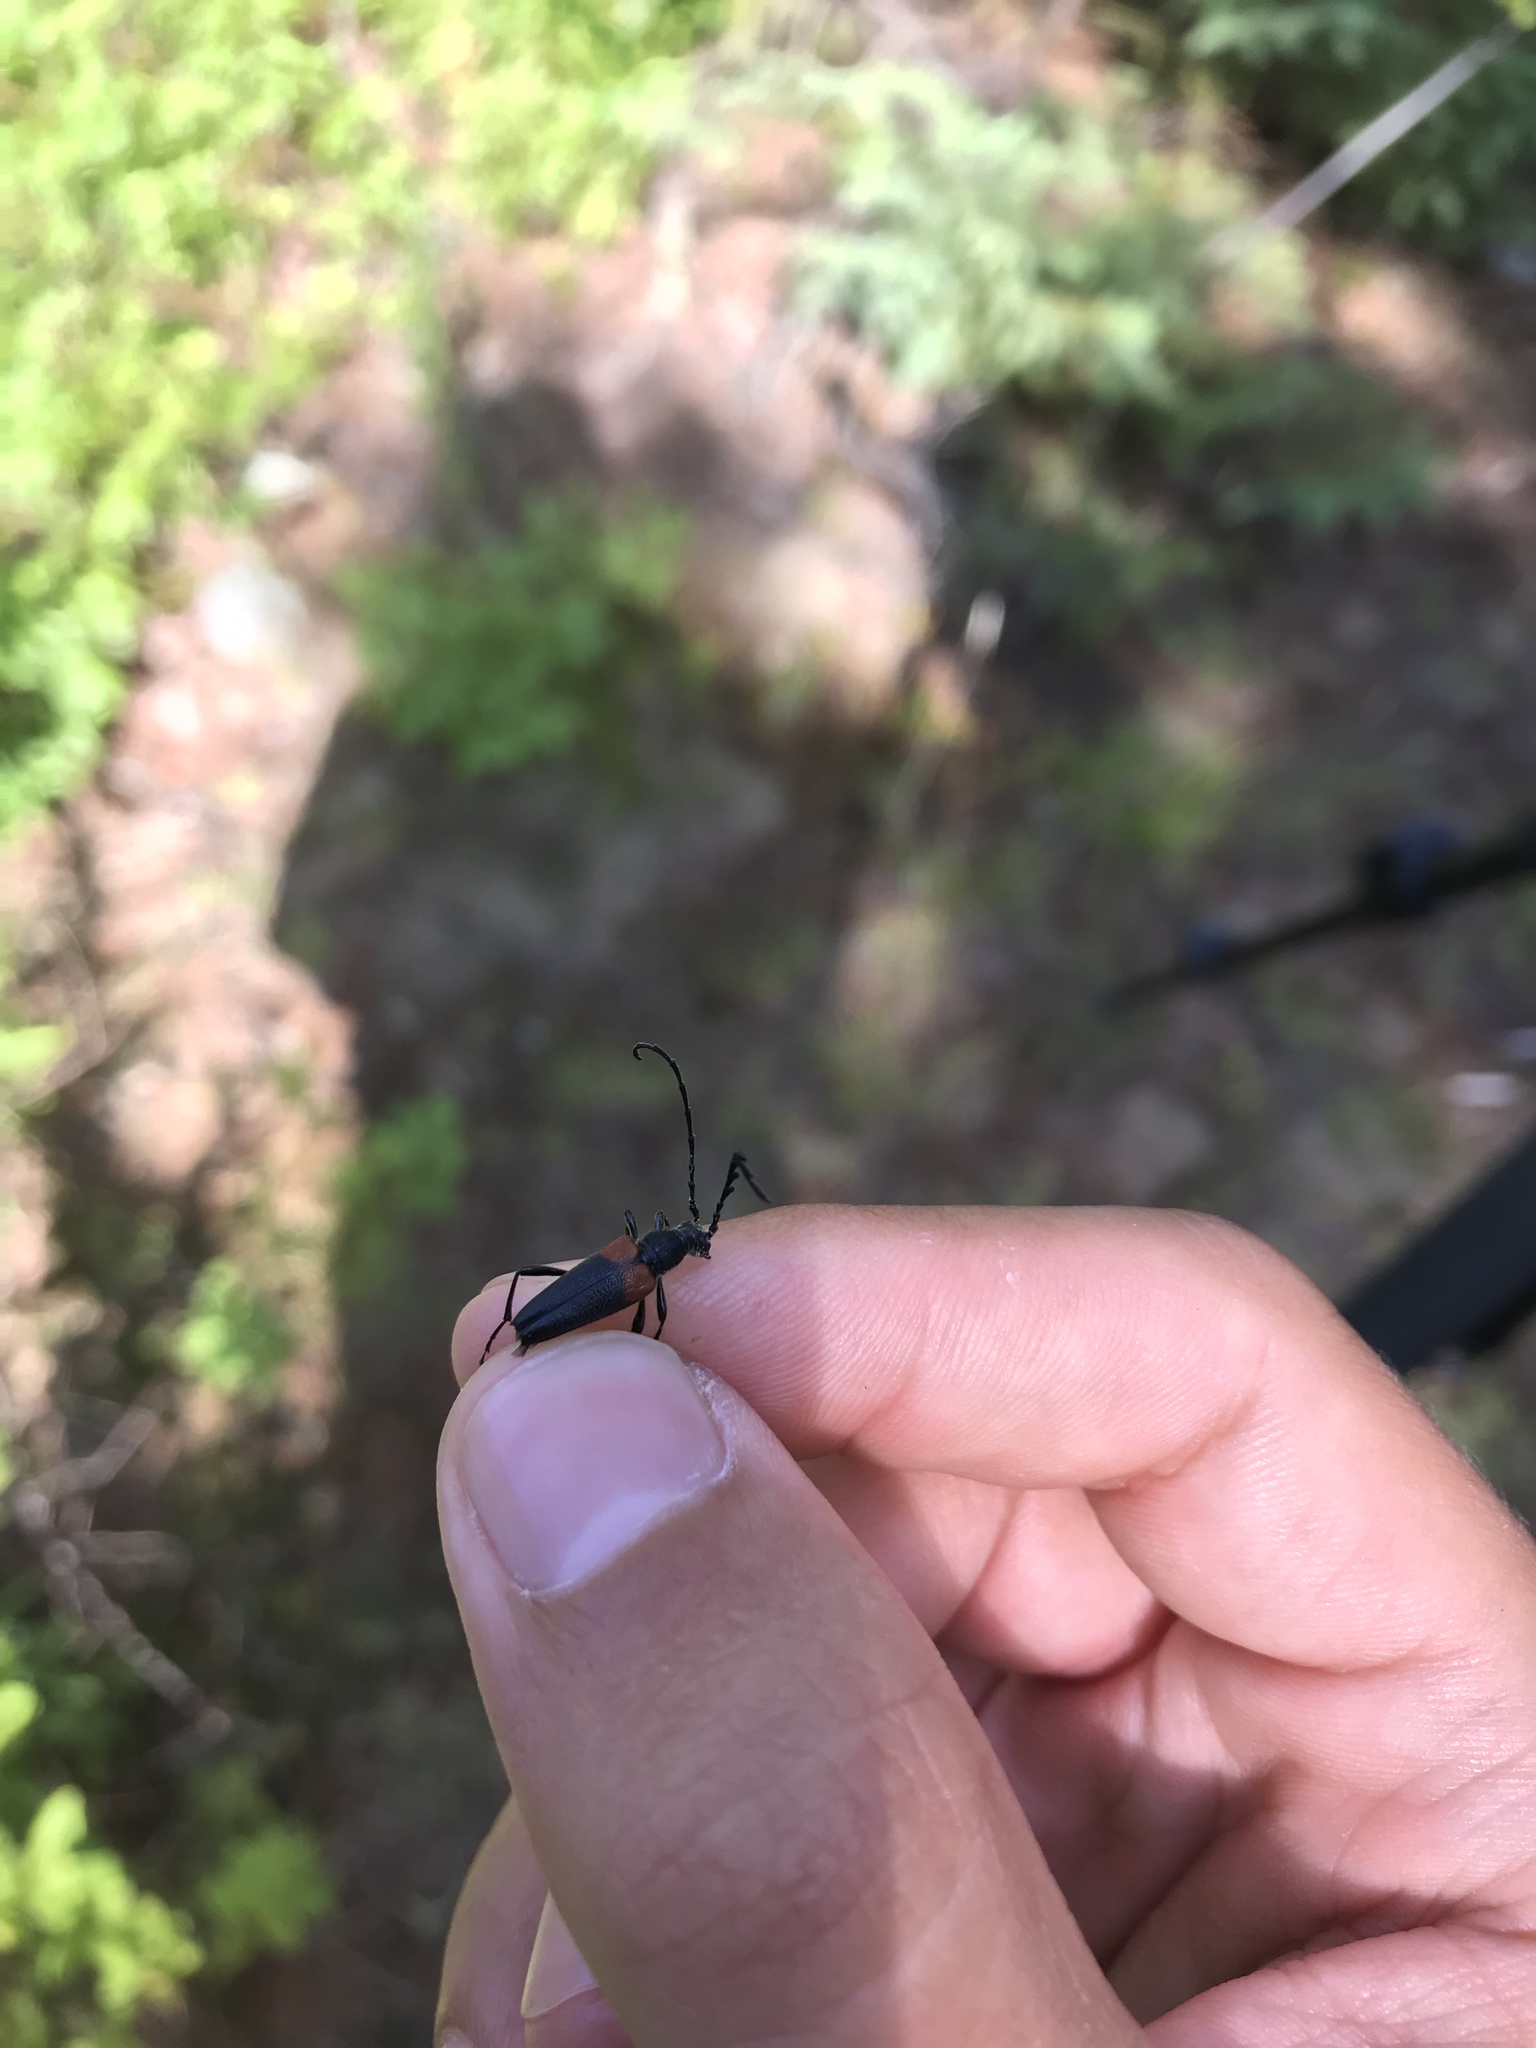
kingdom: Animalia
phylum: Arthropoda
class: Insecta
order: Coleoptera
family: Cerambycidae
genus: Stictoleptura
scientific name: Stictoleptura canadensis
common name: Red-shouldered pine borer
